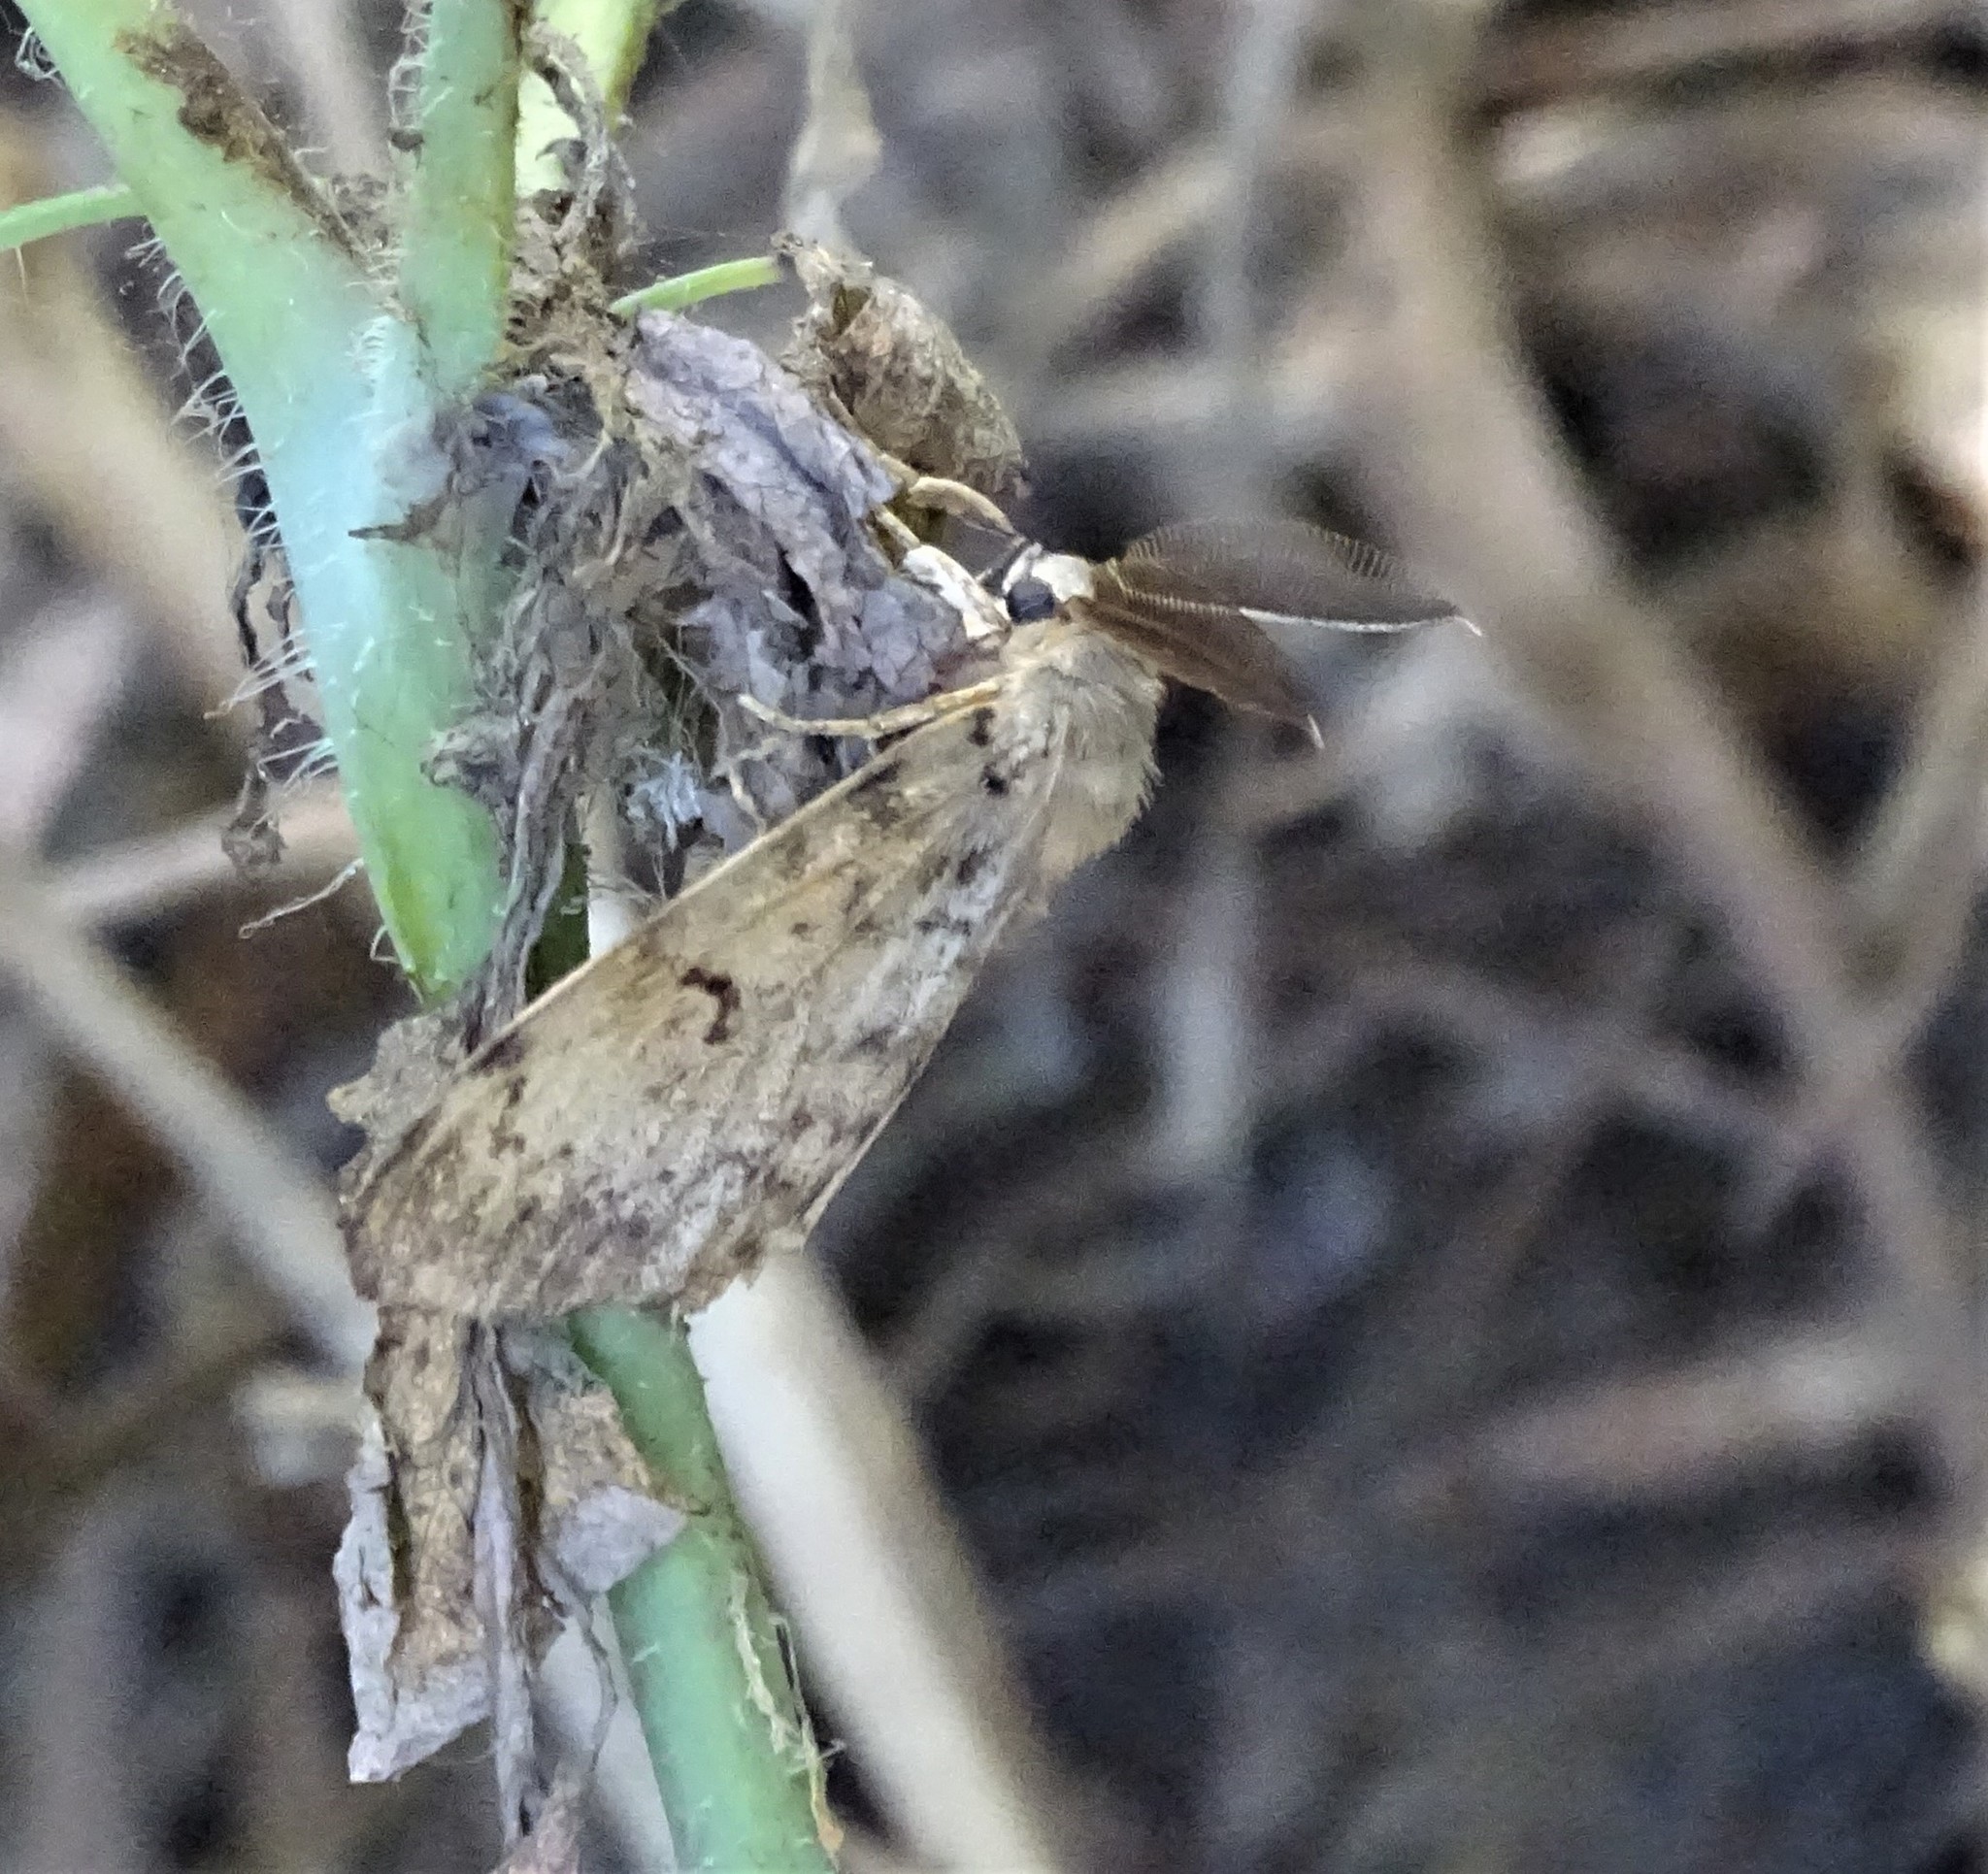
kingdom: Animalia
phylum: Arthropoda
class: Insecta
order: Lepidoptera
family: Erebidae
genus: Lymantria
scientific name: Lymantria dispar
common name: Gypsy moth
